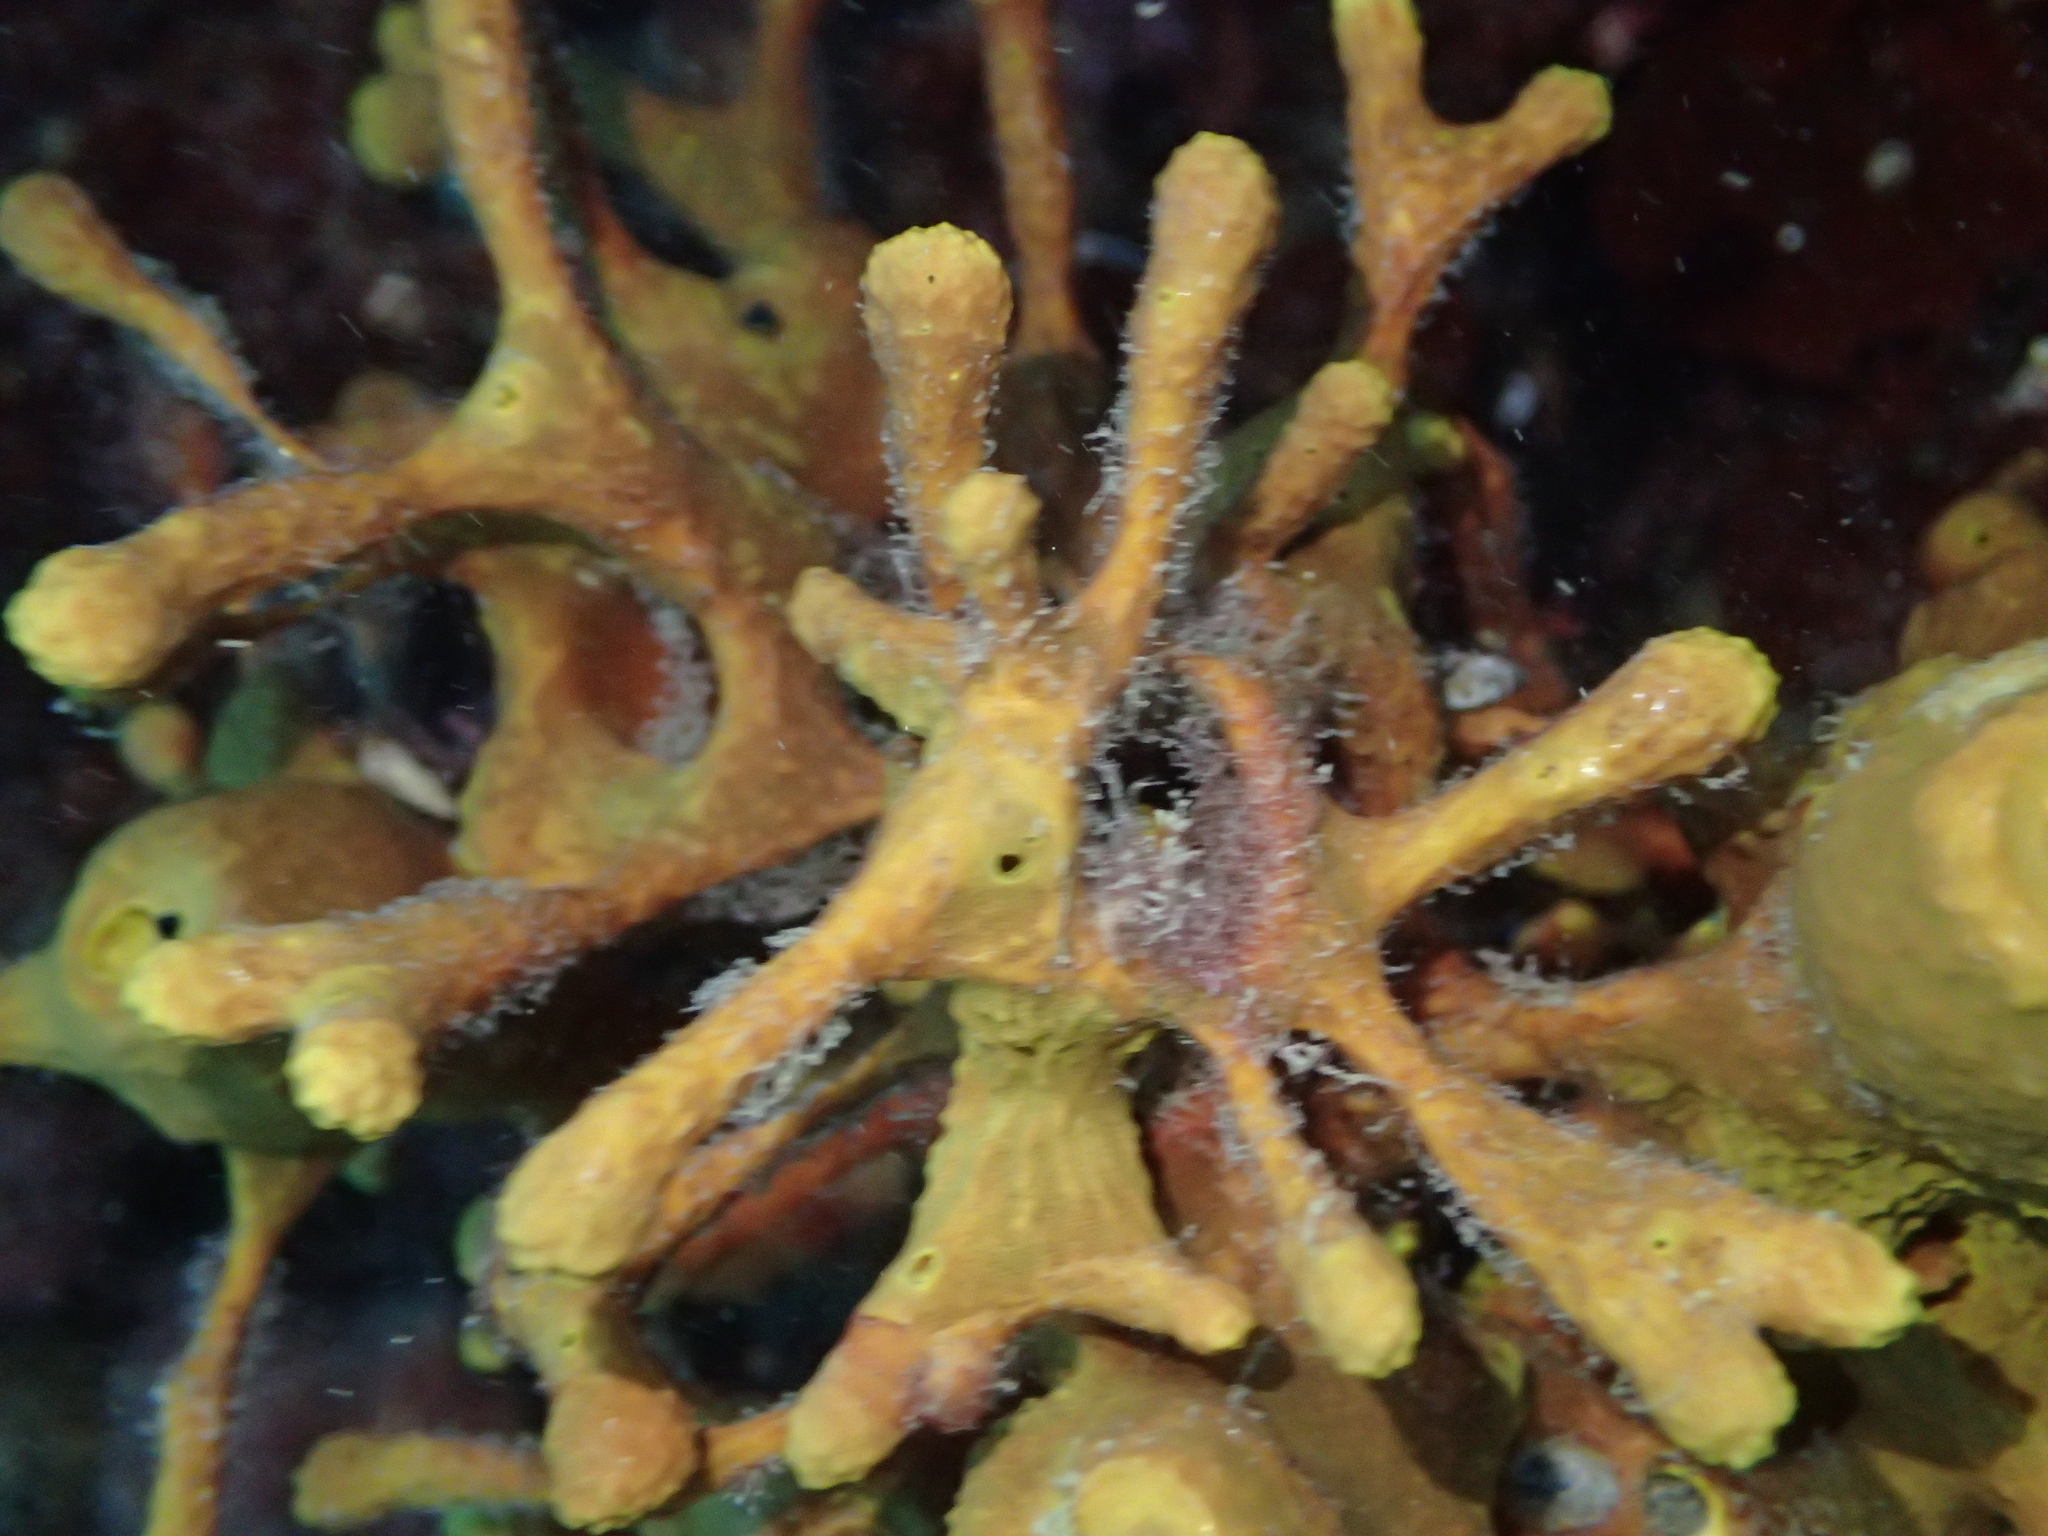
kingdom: Animalia
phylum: Porifera
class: Demospongiae
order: Verongiida
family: Aplysinidae
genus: Aplysina
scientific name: Aplysina aerophoba
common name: Aureate sponge
